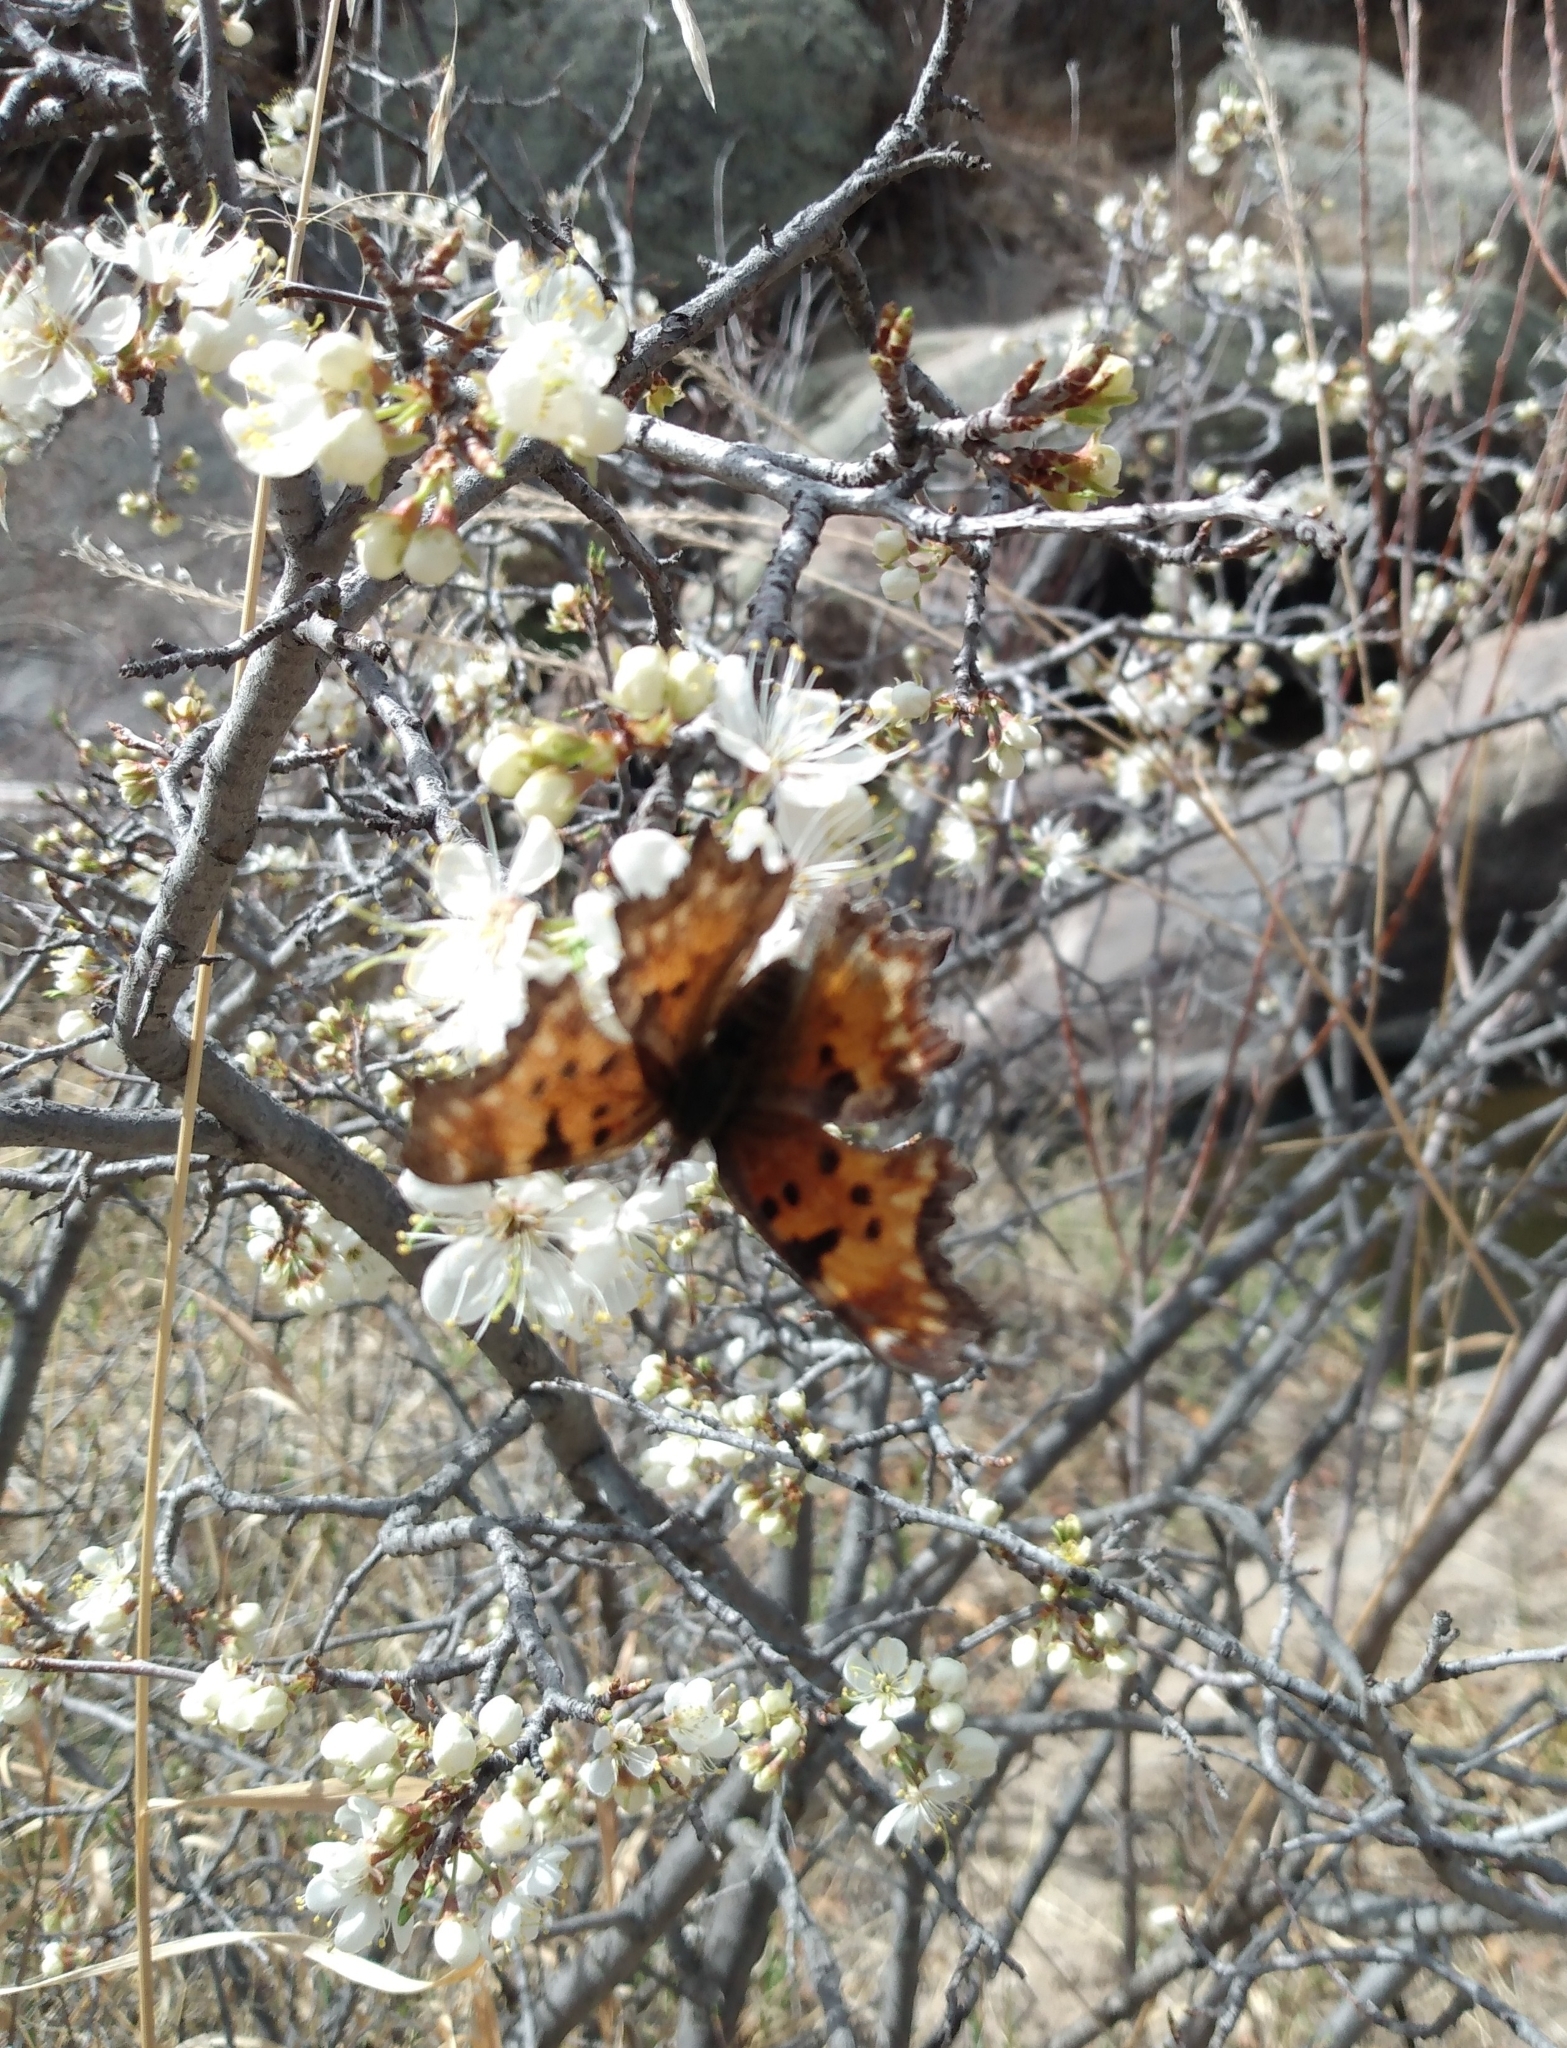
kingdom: Animalia
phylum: Arthropoda
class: Insecta
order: Lepidoptera
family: Nymphalidae
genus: Polygonia
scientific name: Polygonia gracilis
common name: Hoary comma
